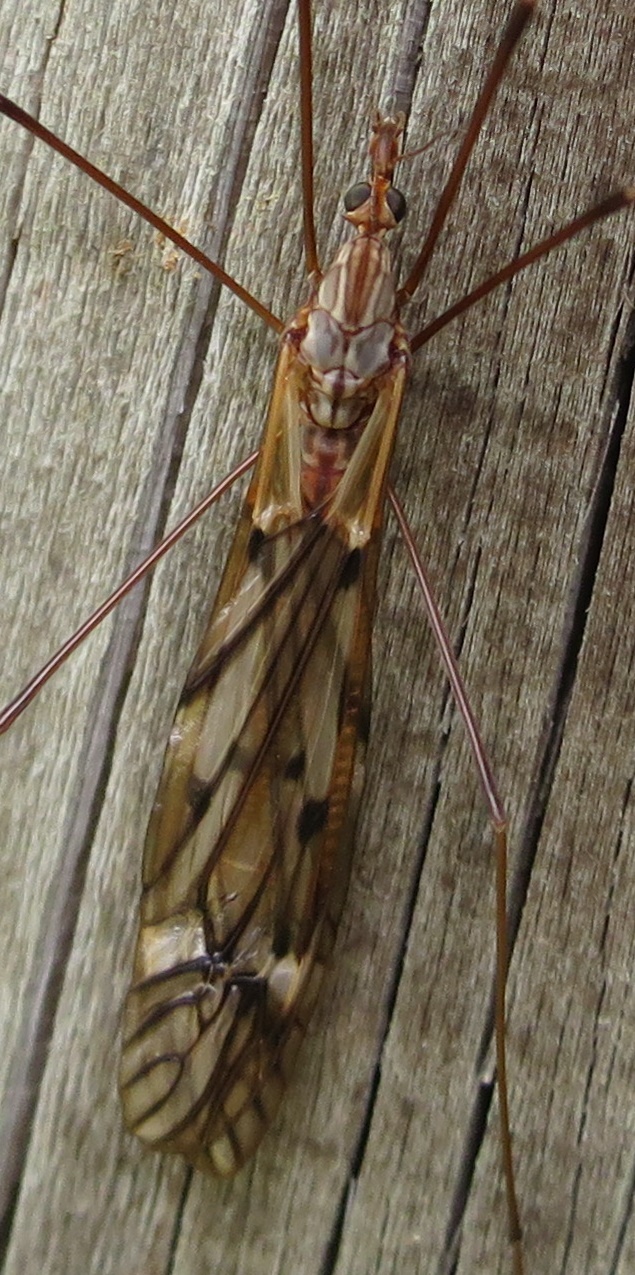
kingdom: Animalia
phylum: Arthropoda
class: Insecta
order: Diptera
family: Tipulidae
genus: Zelandotipula
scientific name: Zelandotipula novarae
